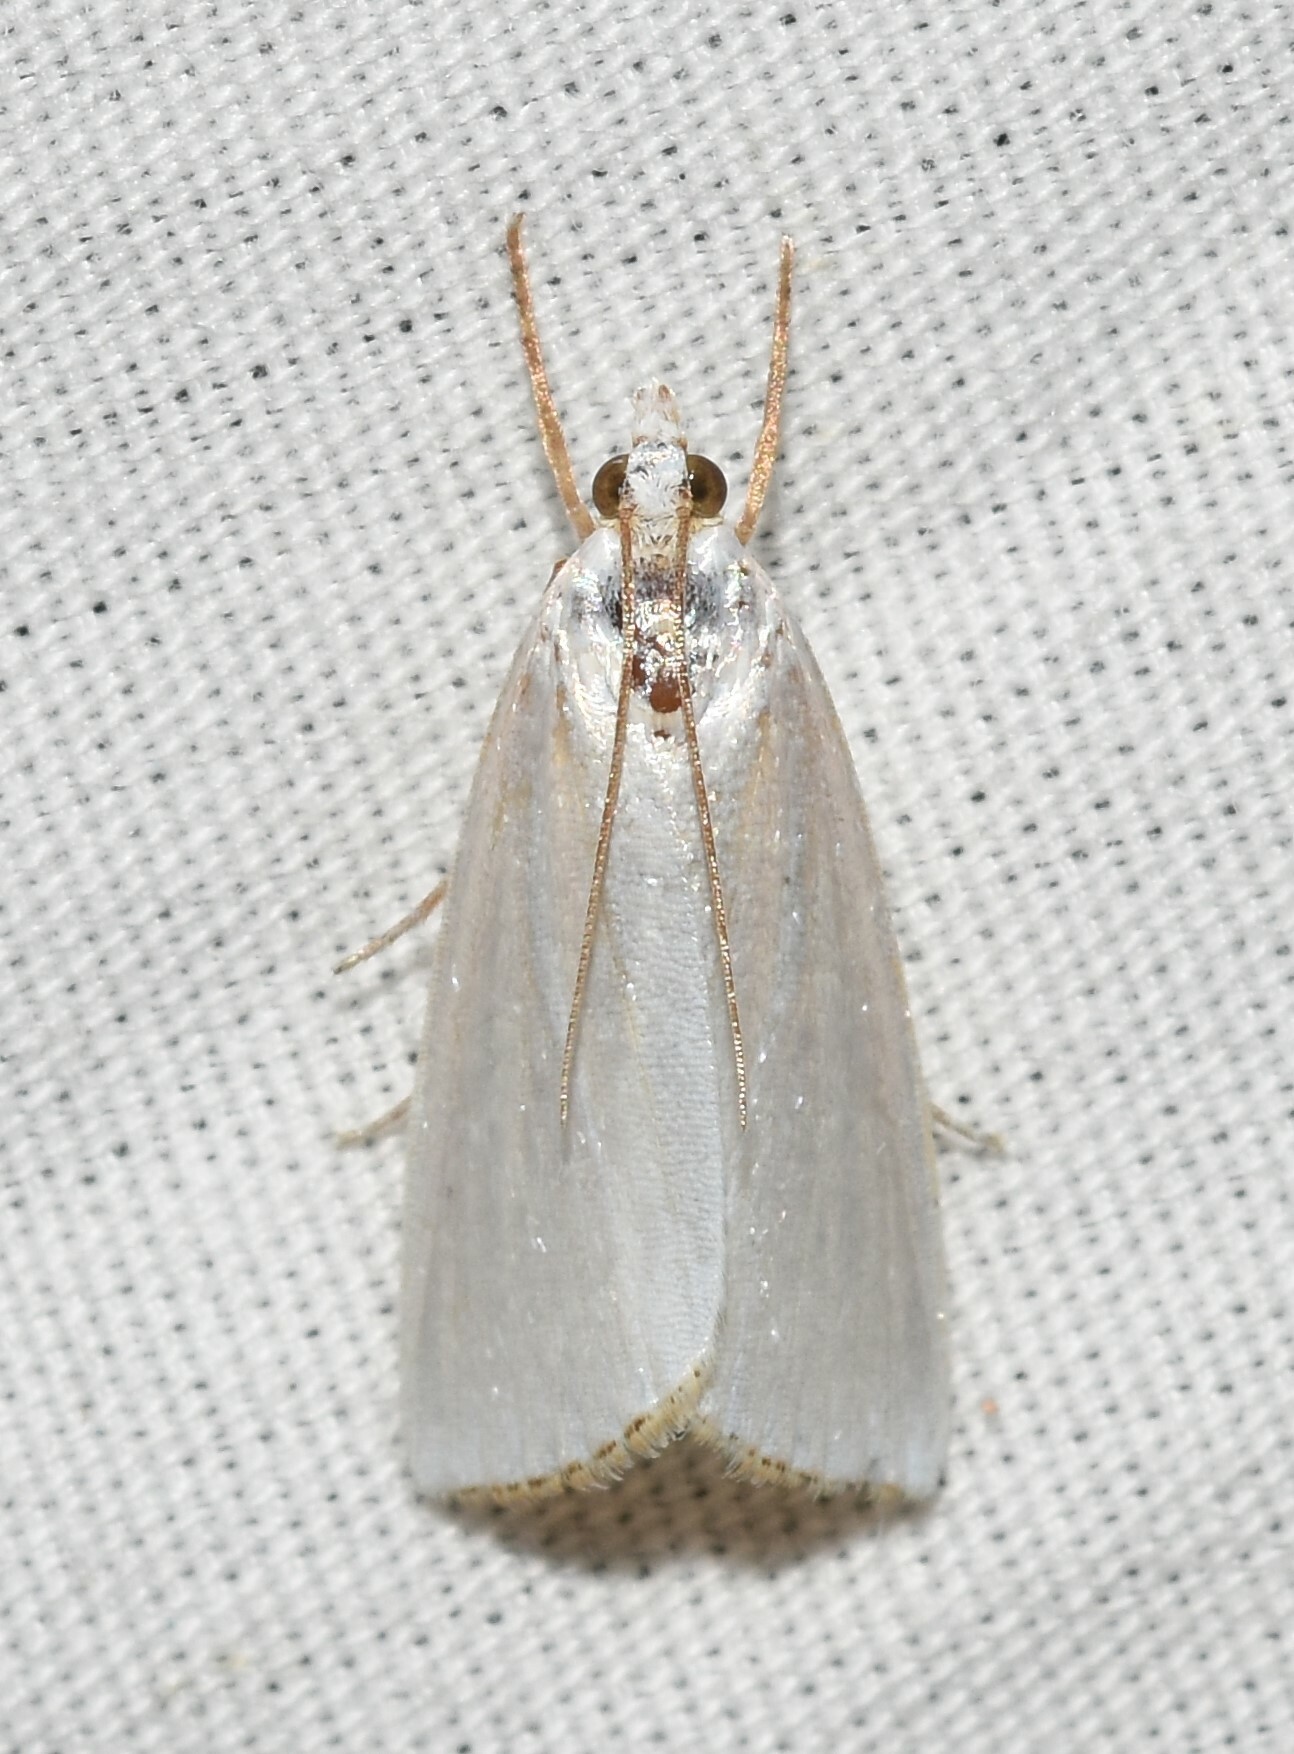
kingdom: Animalia
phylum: Arthropoda
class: Insecta
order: Lepidoptera
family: Crambidae
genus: Argyria
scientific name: Argyria nivalis
